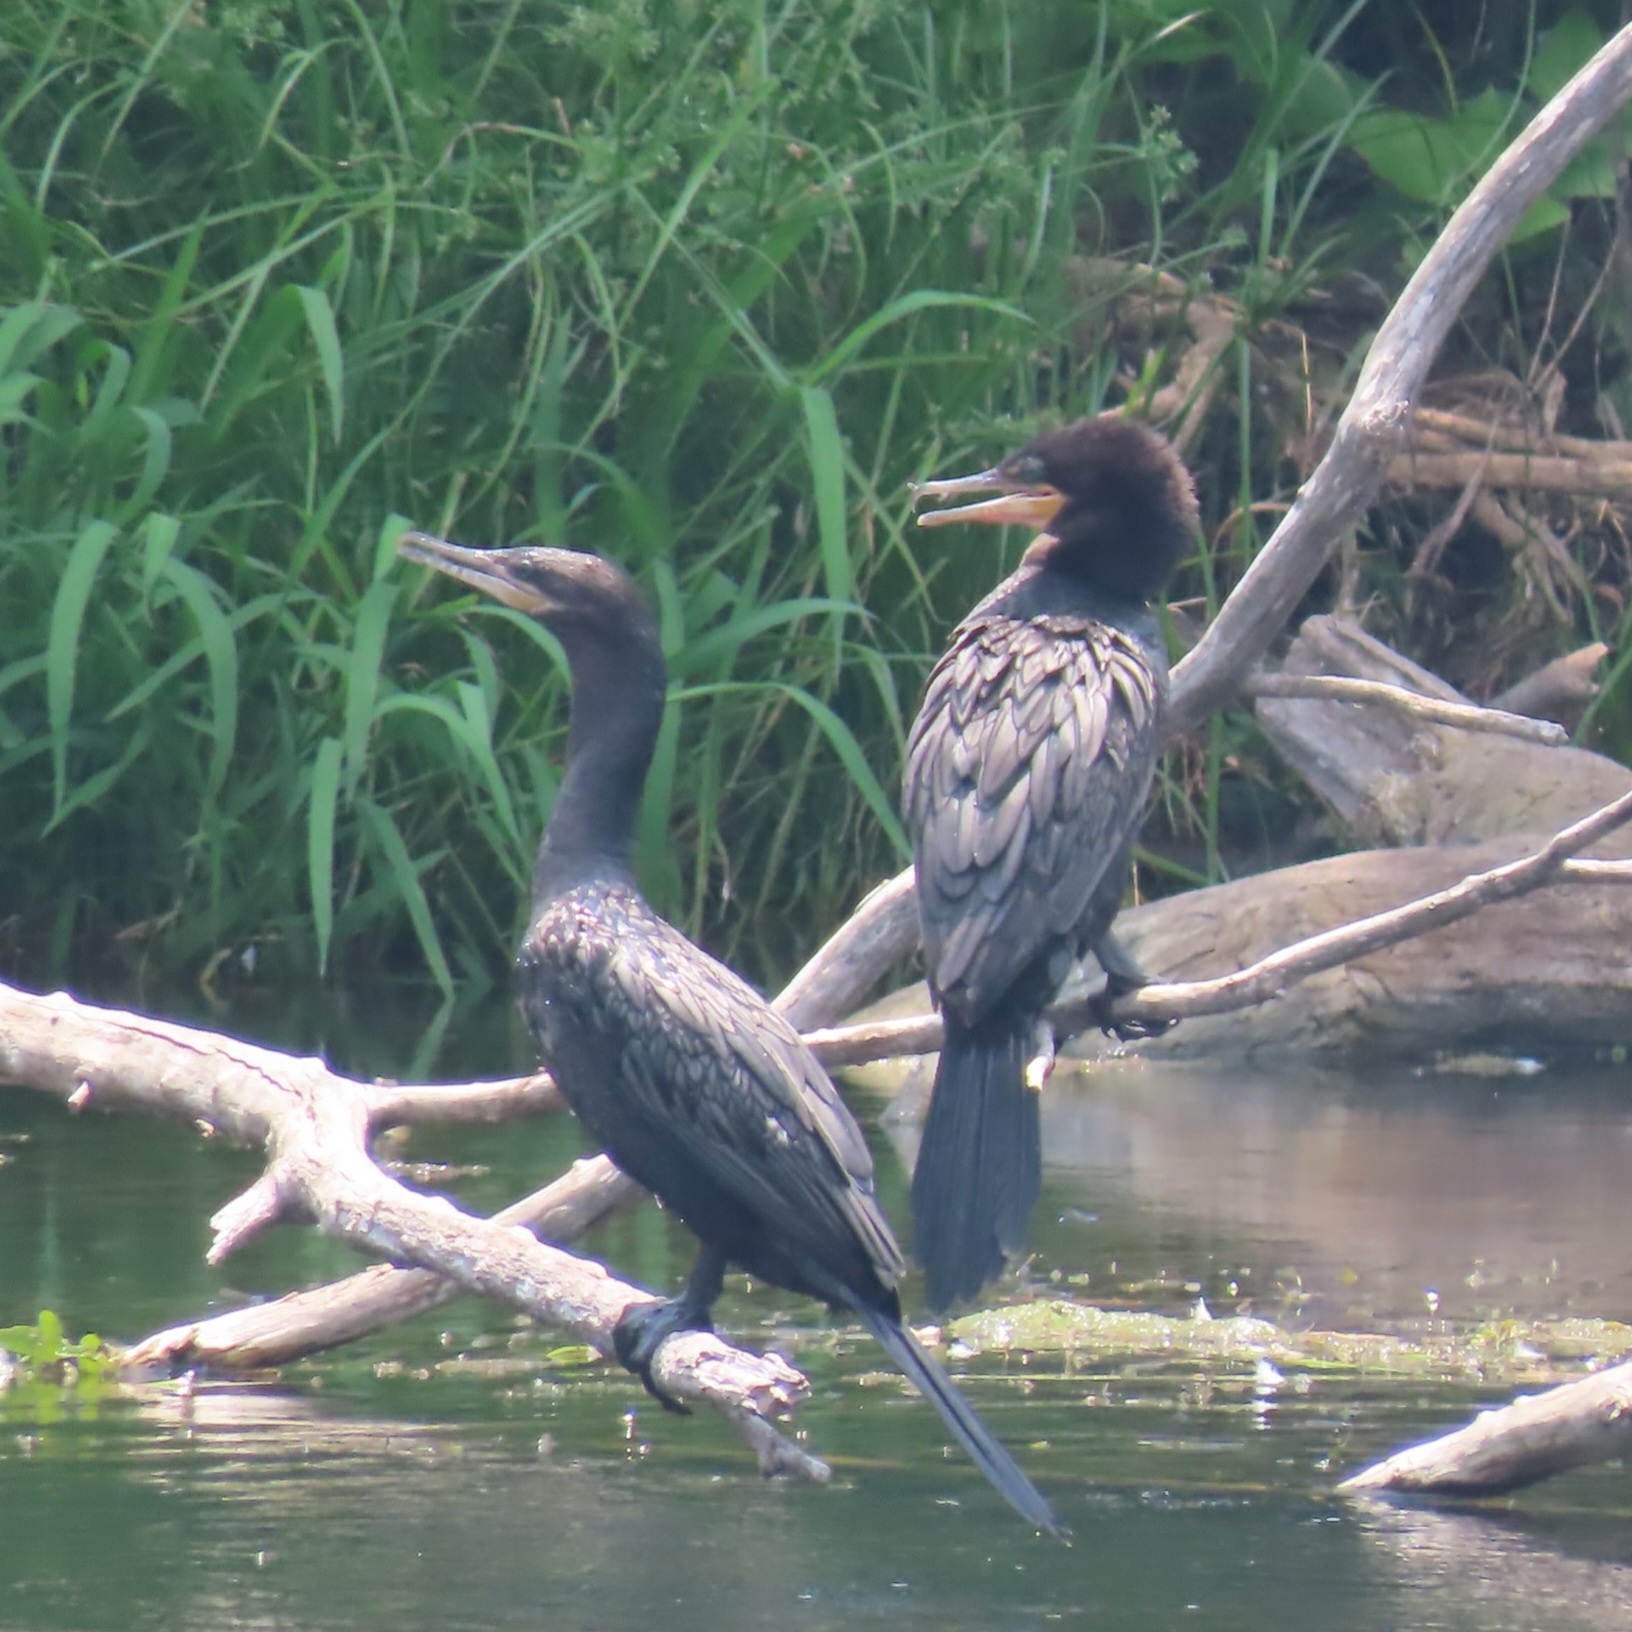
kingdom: Animalia
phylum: Chordata
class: Aves
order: Suliformes
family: Phalacrocoracidae
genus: Phalacrocorax
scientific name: Phalacrocorax brasilianus
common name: Neotropic cormorant
